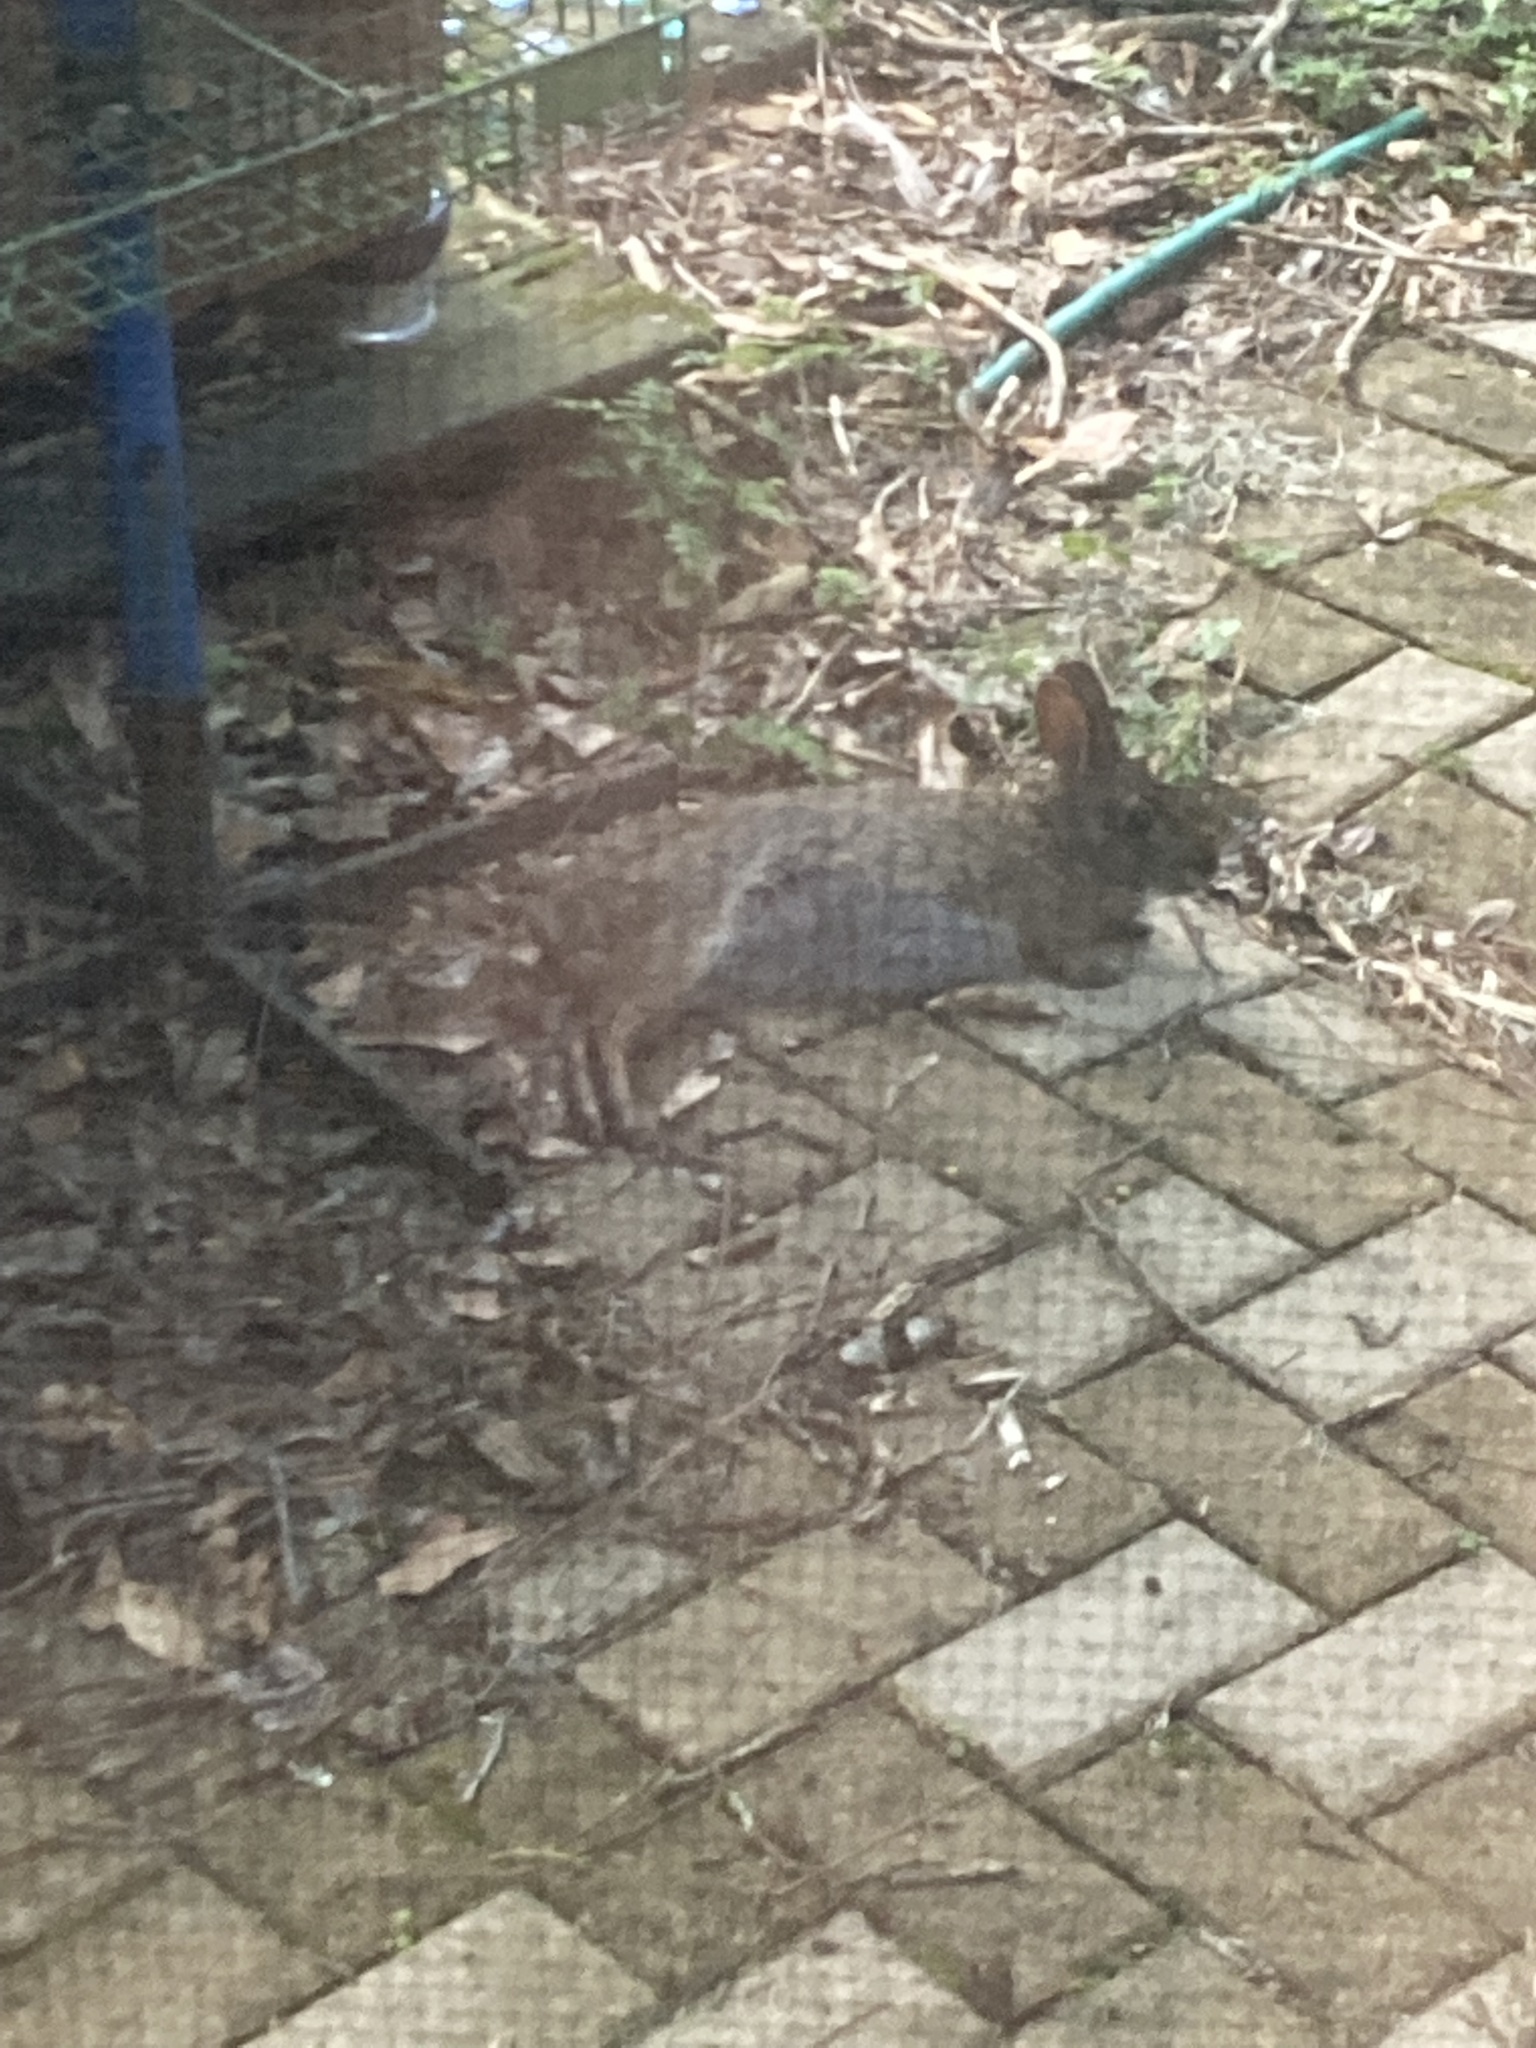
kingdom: Animalia
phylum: Chordata
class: Mammalia
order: Lagomorpha
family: Leporidae
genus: Sylvilagus
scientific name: Sylvilagus palustris
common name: Marsh rabbit
